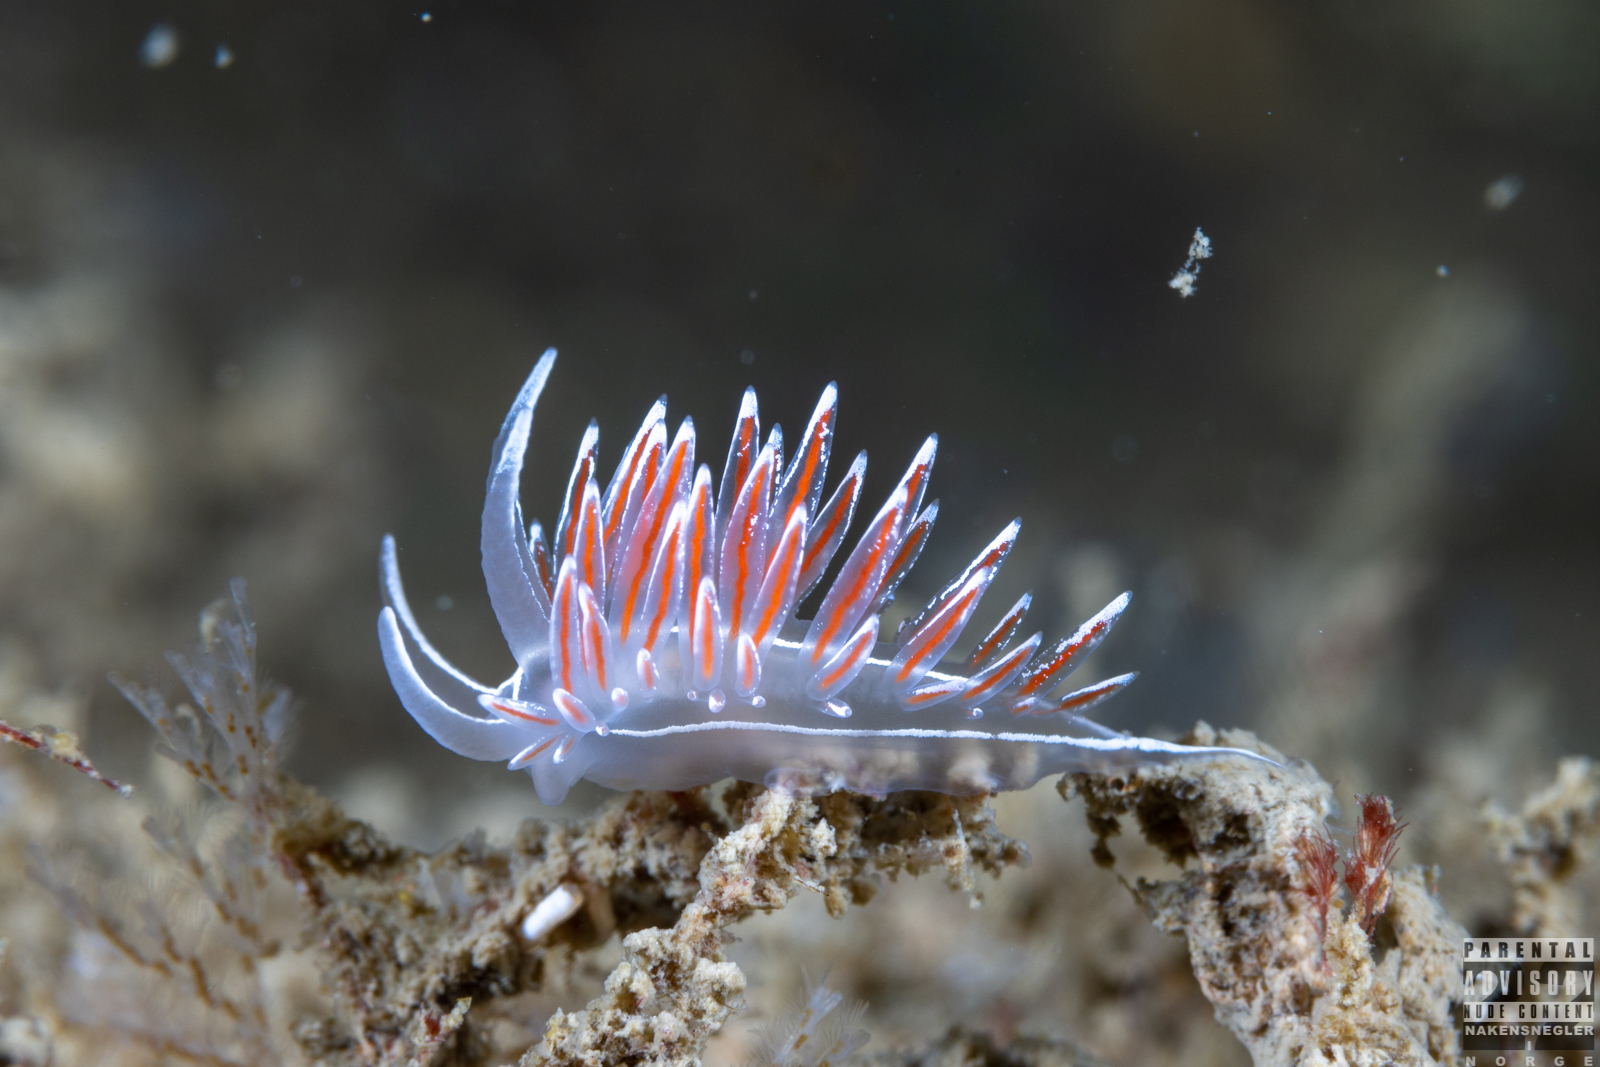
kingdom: Animalia
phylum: Mollusca
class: Gastropoda
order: Nudibranchia
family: Coryphellidae
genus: Coryphella
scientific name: Coryphella lineata
